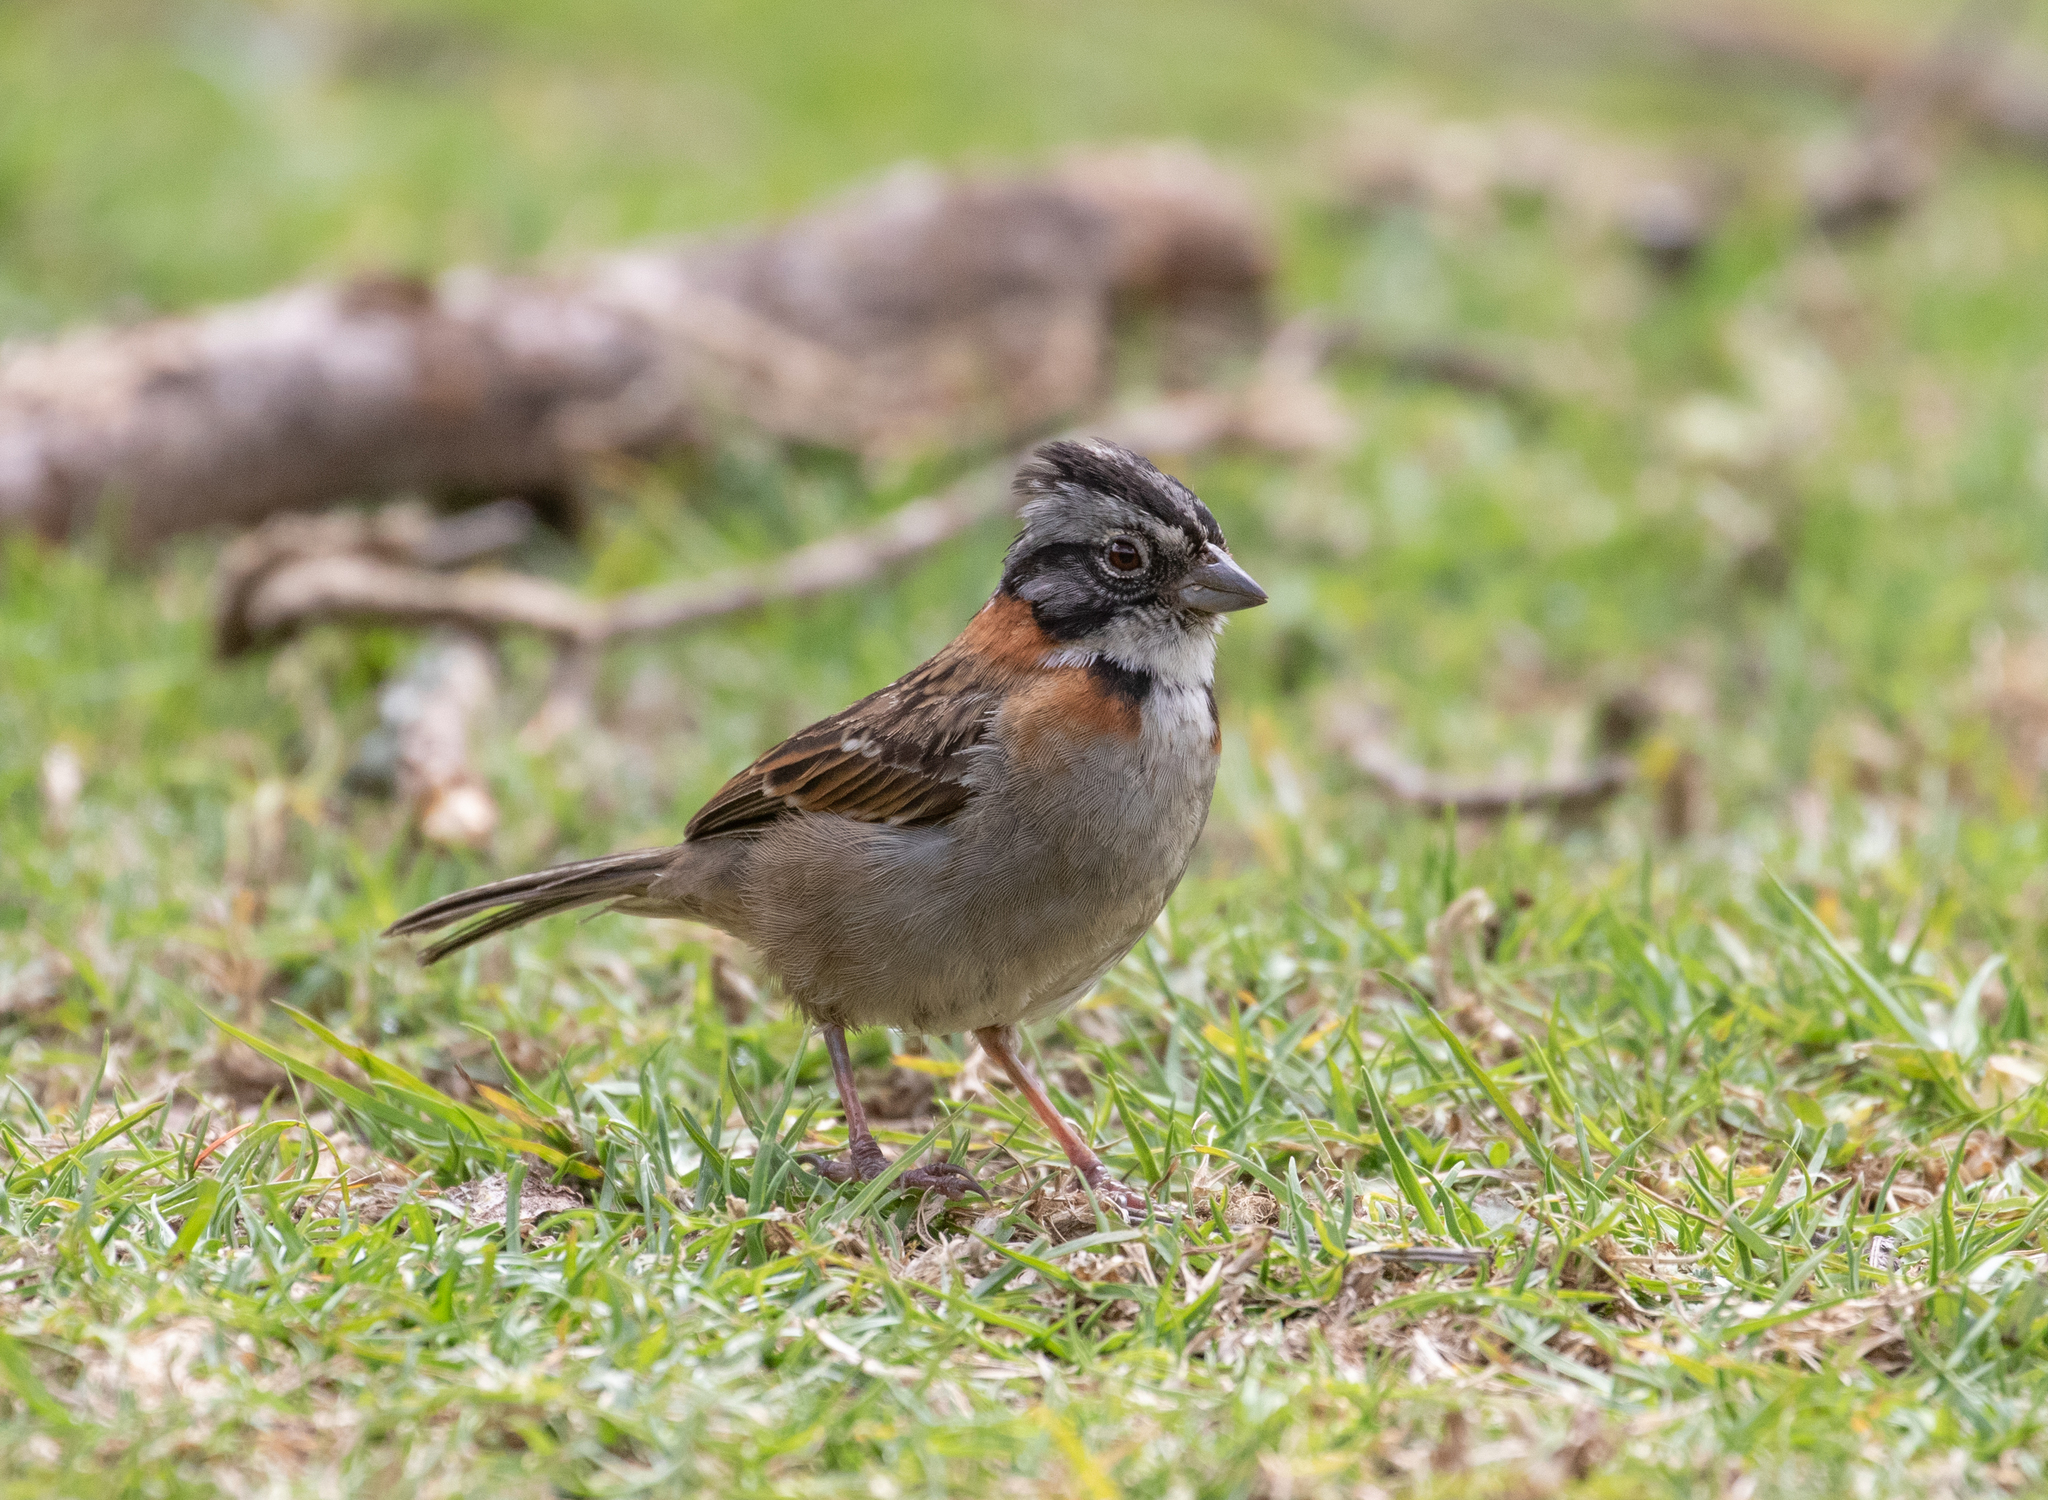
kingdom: Animalia
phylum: Chordata
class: Aves
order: Passeriformes
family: Passerellidae
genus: Zonotrichia
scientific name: Zonotrichia capensis
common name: Rufous-collared sparrow
